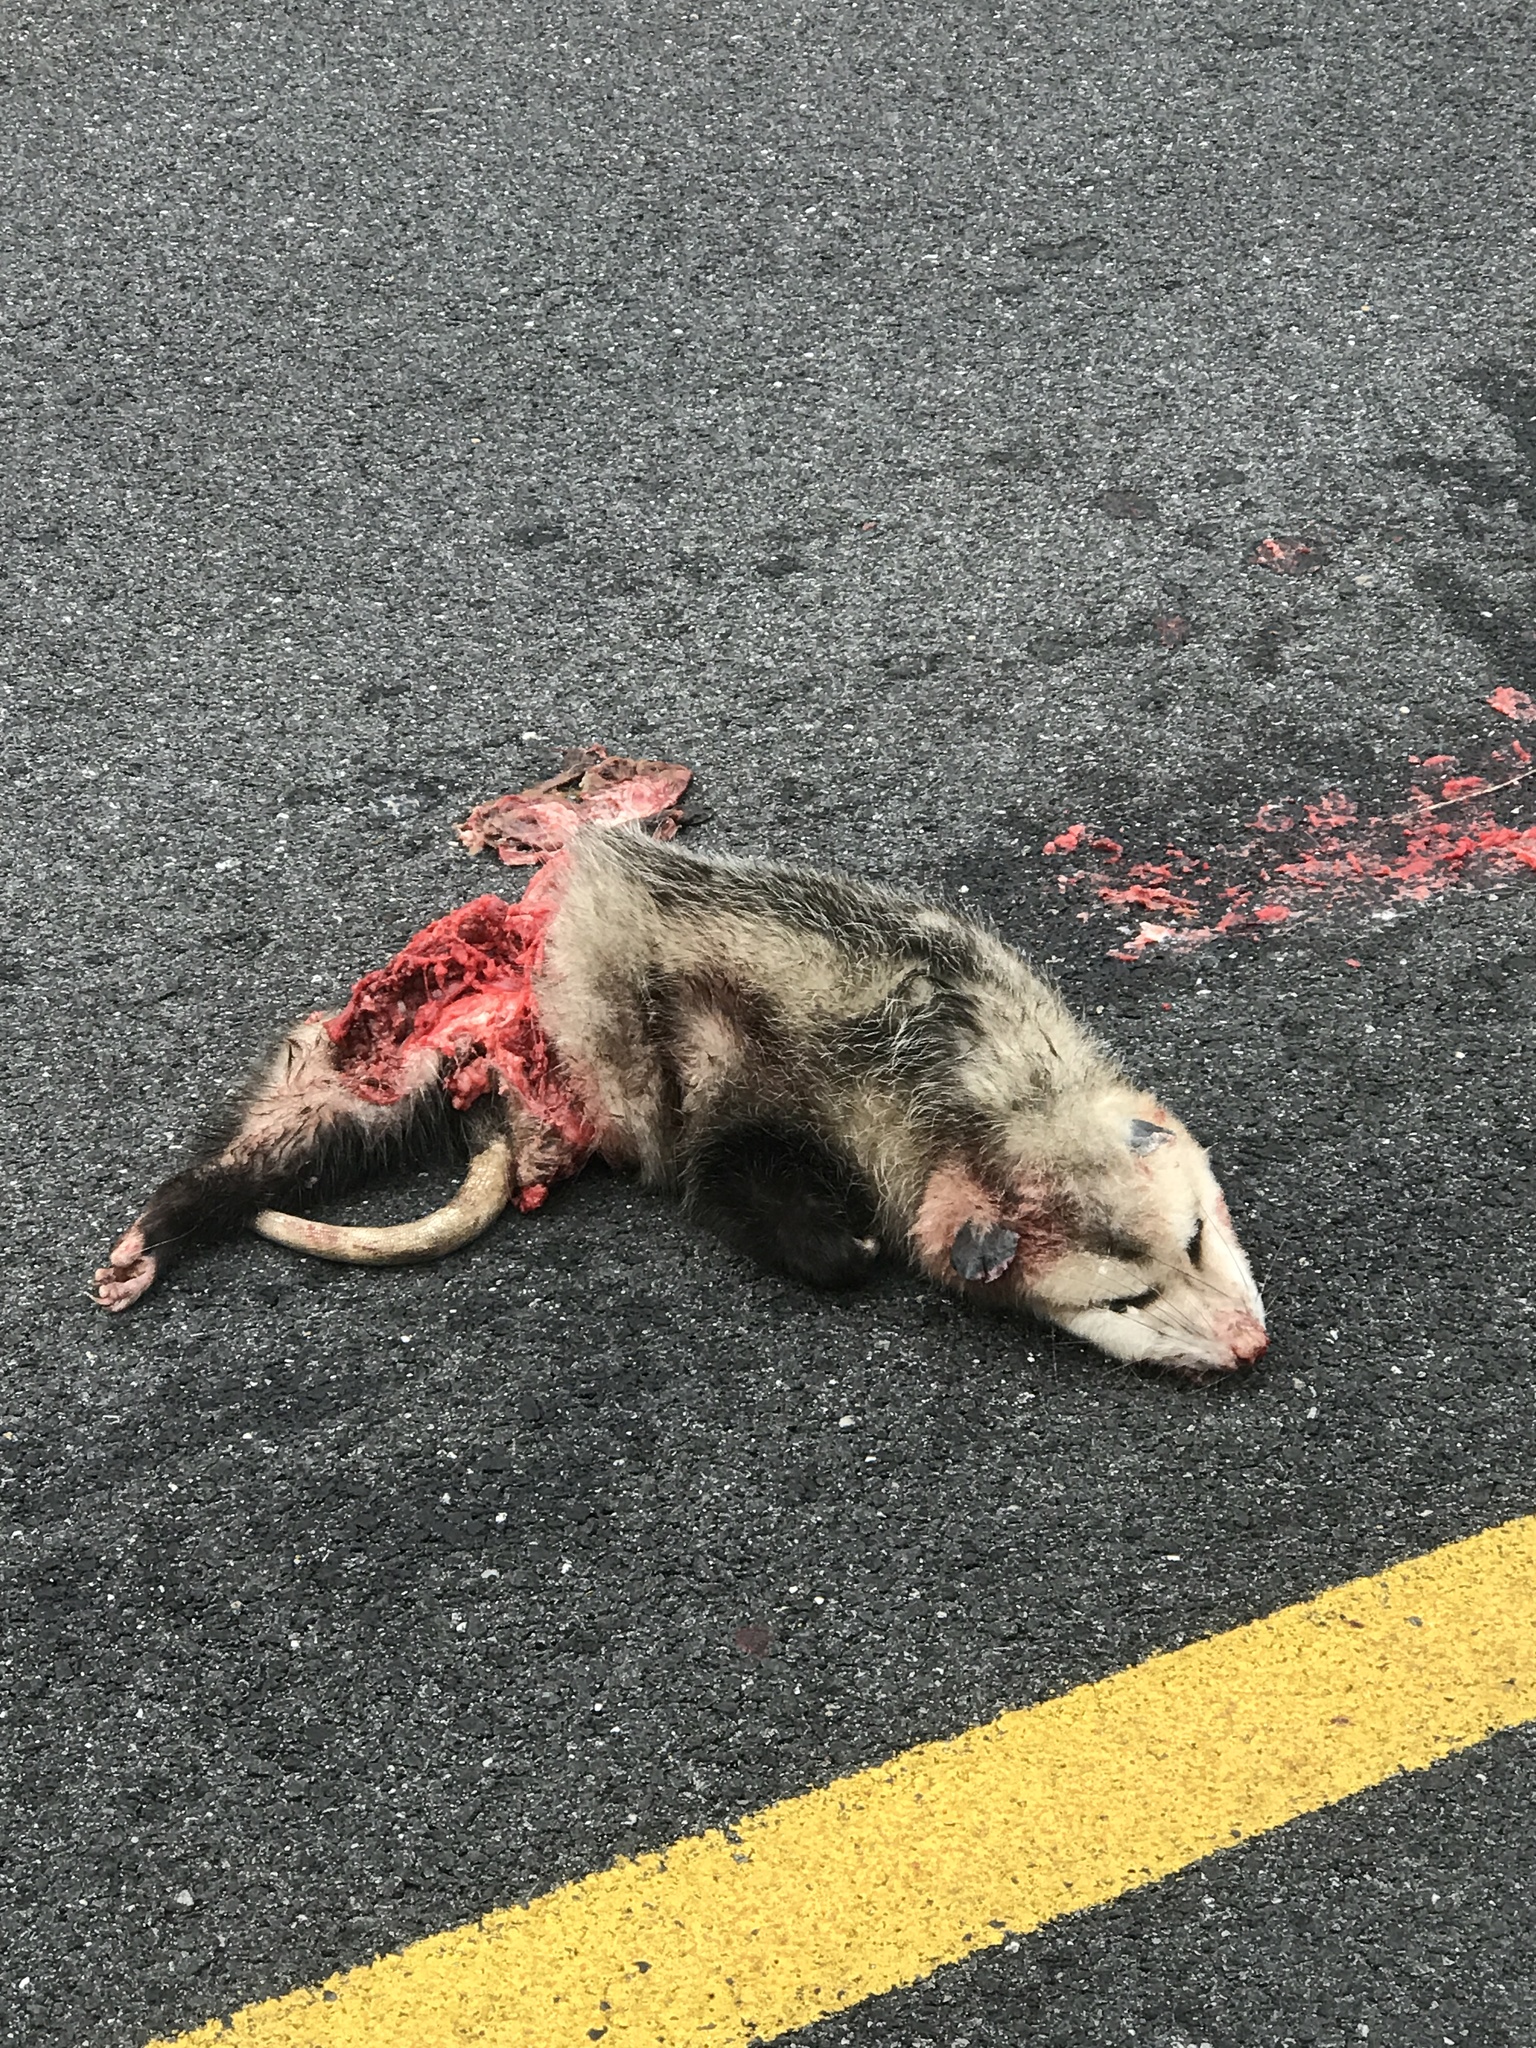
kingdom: Animalia
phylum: Chordata
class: Mammalia
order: Didelphimorphia
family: Didelphidae
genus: Didelphis
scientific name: Didelphis virginiana
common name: Virginia opossum
